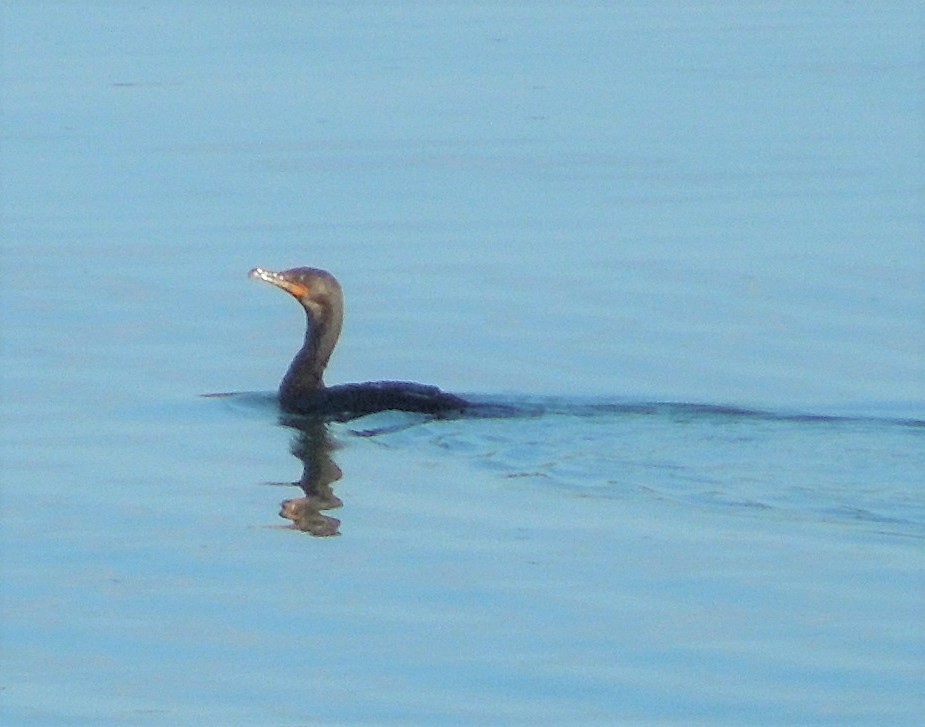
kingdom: Animalia
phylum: Chordata
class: Aves
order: Suliformes
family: Phalacrocoracidae
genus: Phalacrocorax
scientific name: Phalacrocorax auritus
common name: Double-crested cormorant
